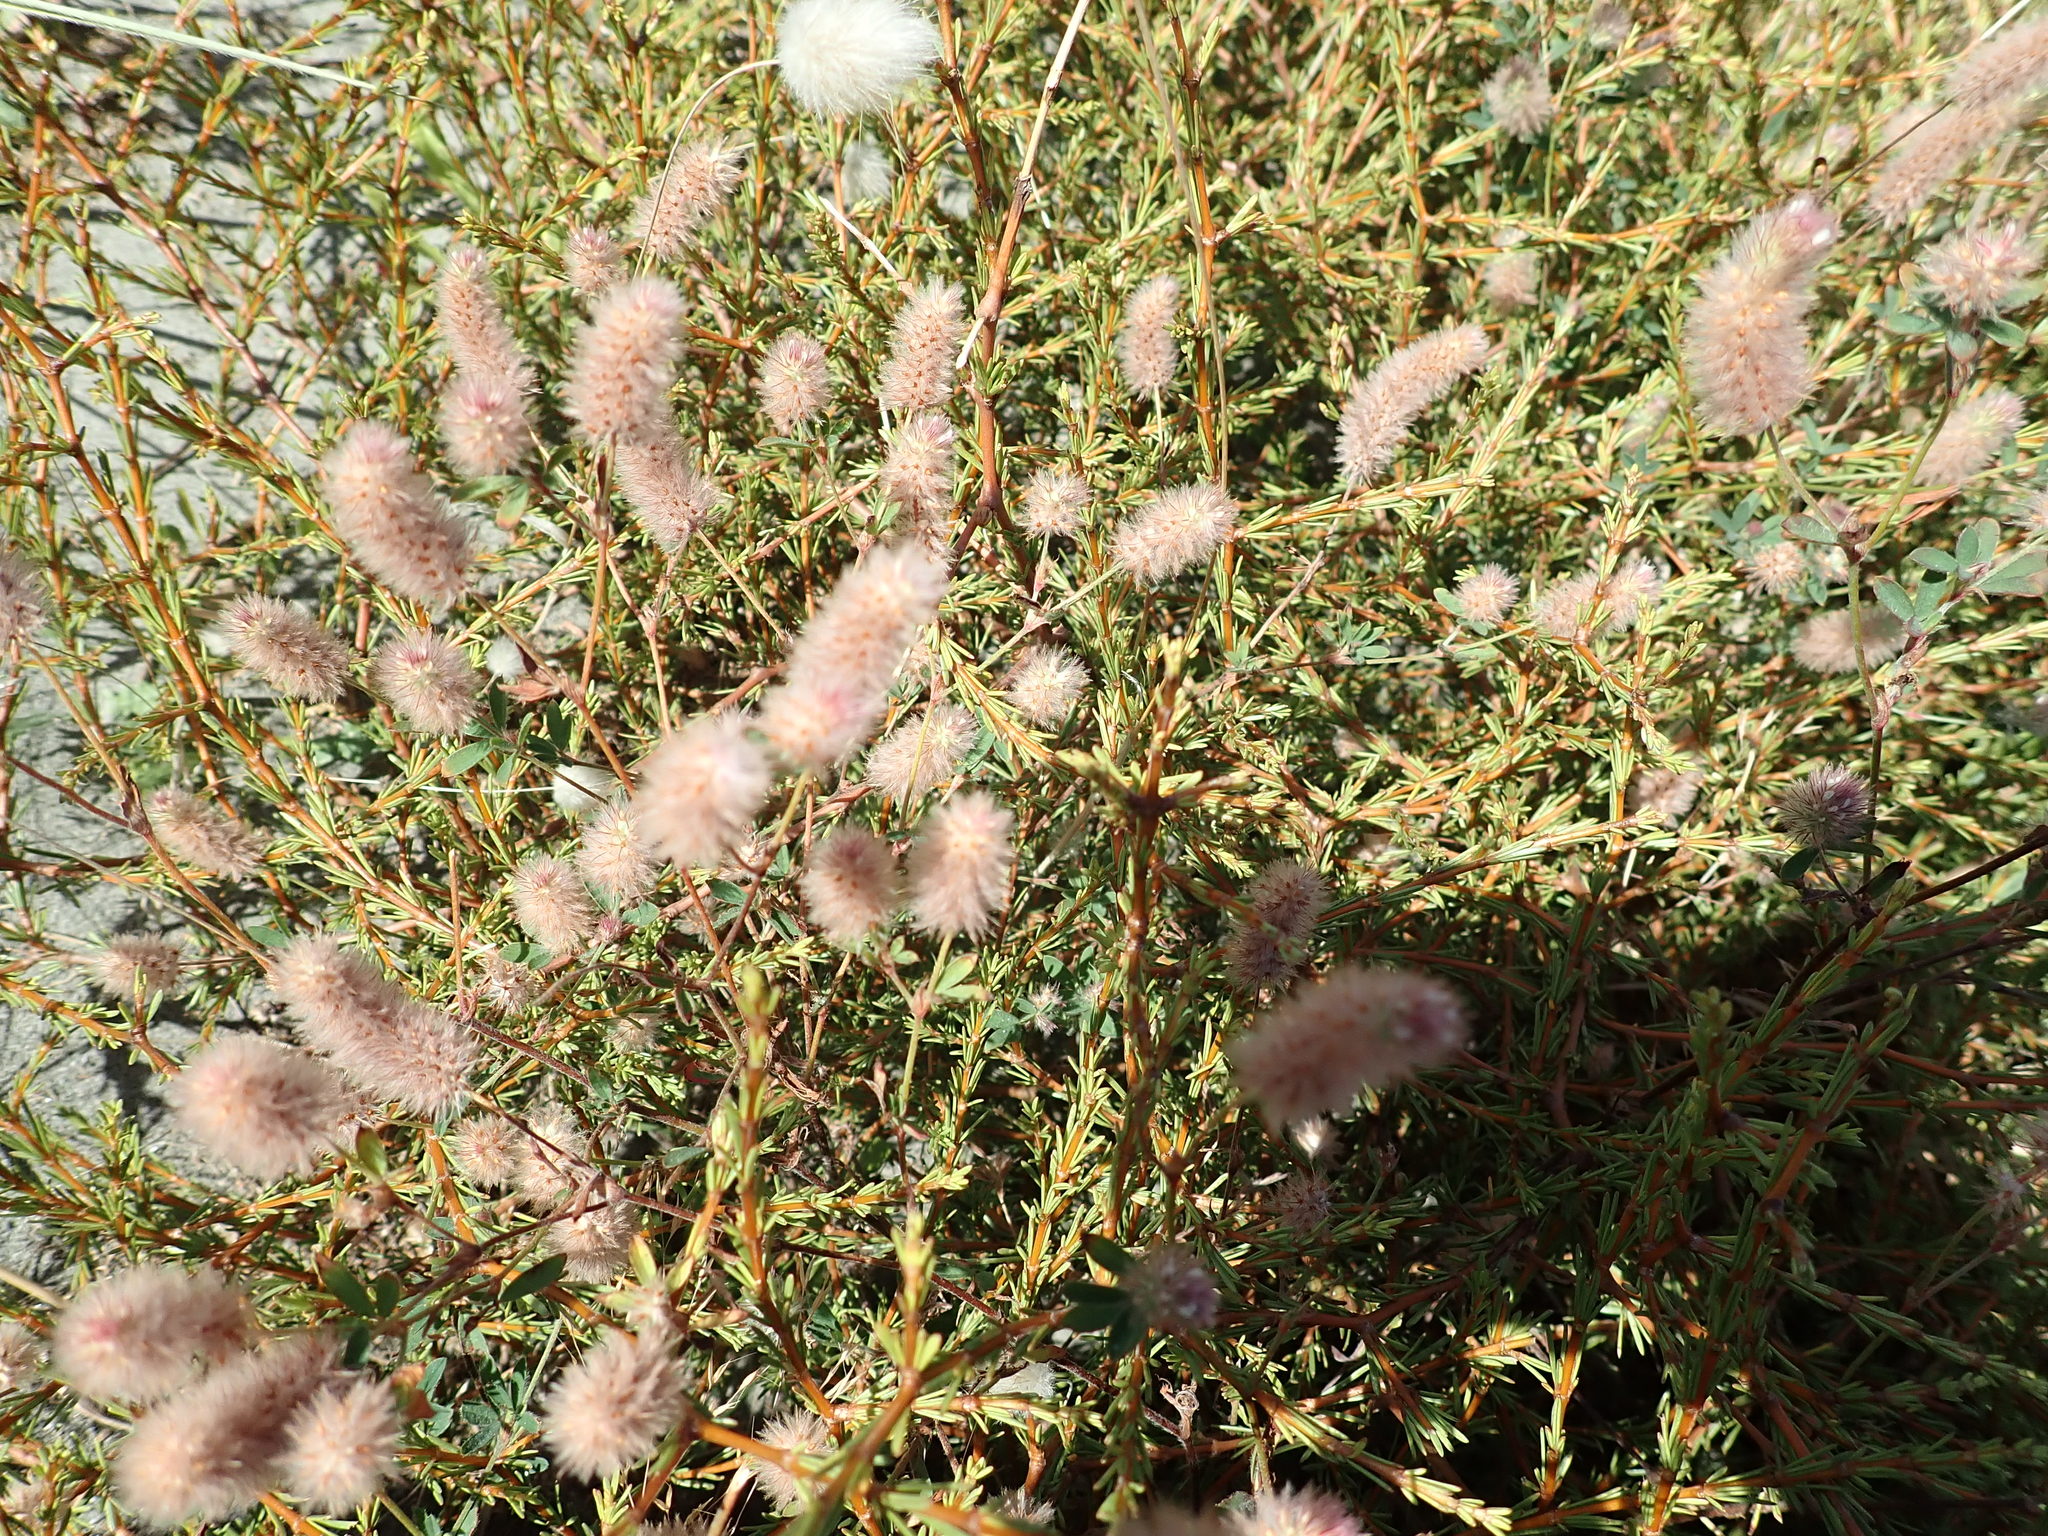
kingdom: Plantae
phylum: Tracheophyta
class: Magnoliopsida
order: Fabales
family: Fabaceae
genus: Trifolium
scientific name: Trifolium arvense
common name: Hare's-foot clover
